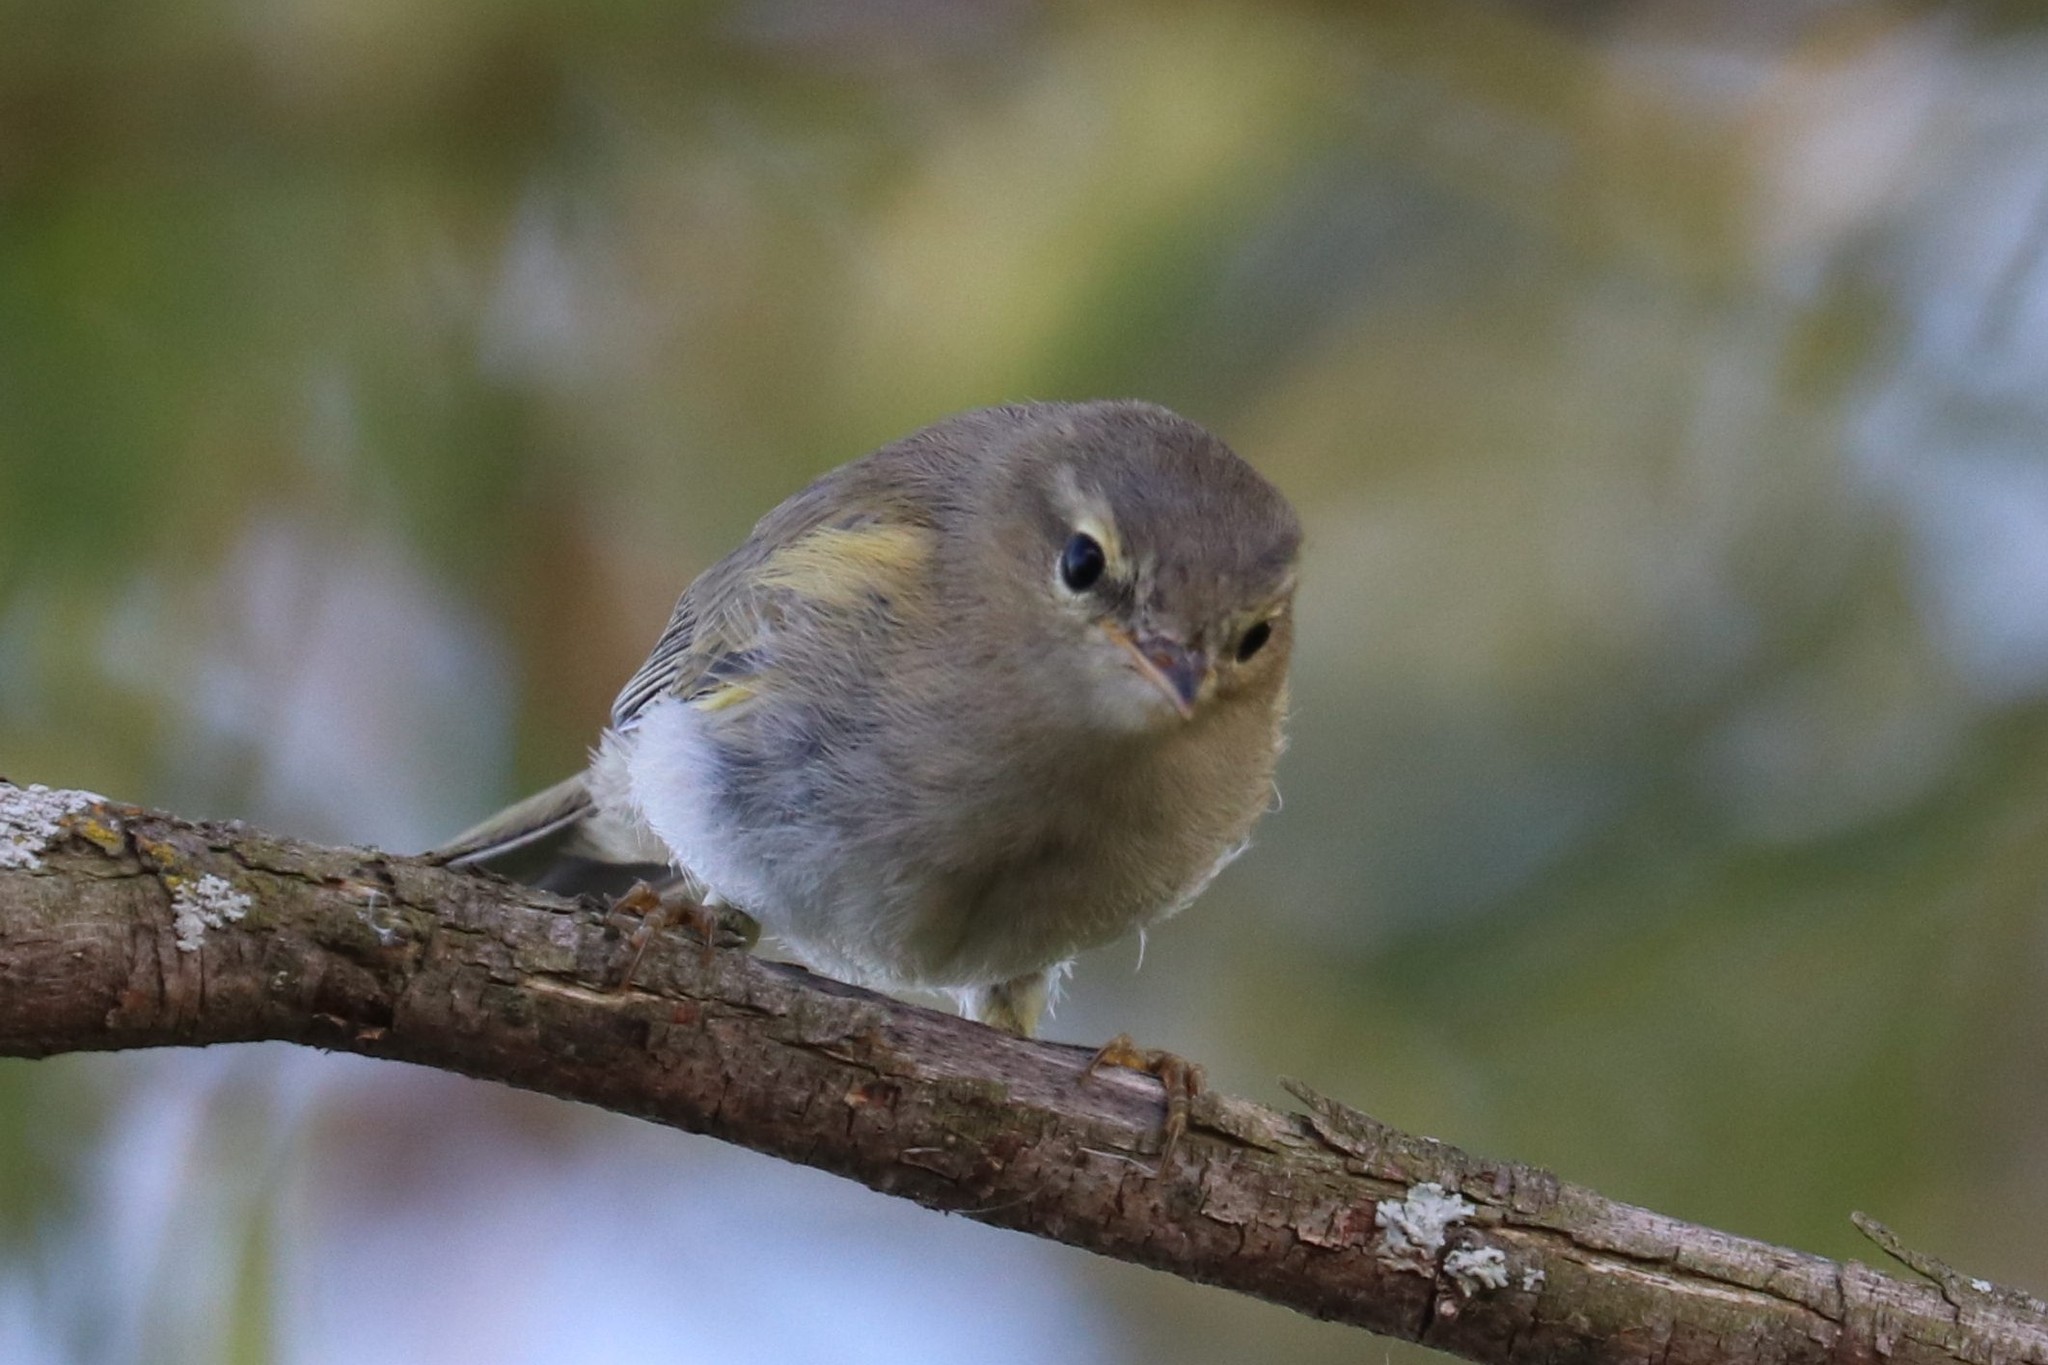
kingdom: Animalia
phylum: Chordata
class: Aves
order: Passeriformes
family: Phylloscopidae
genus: Phylloscopus
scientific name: Phylloscopus collybita
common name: Common chiffchaff
